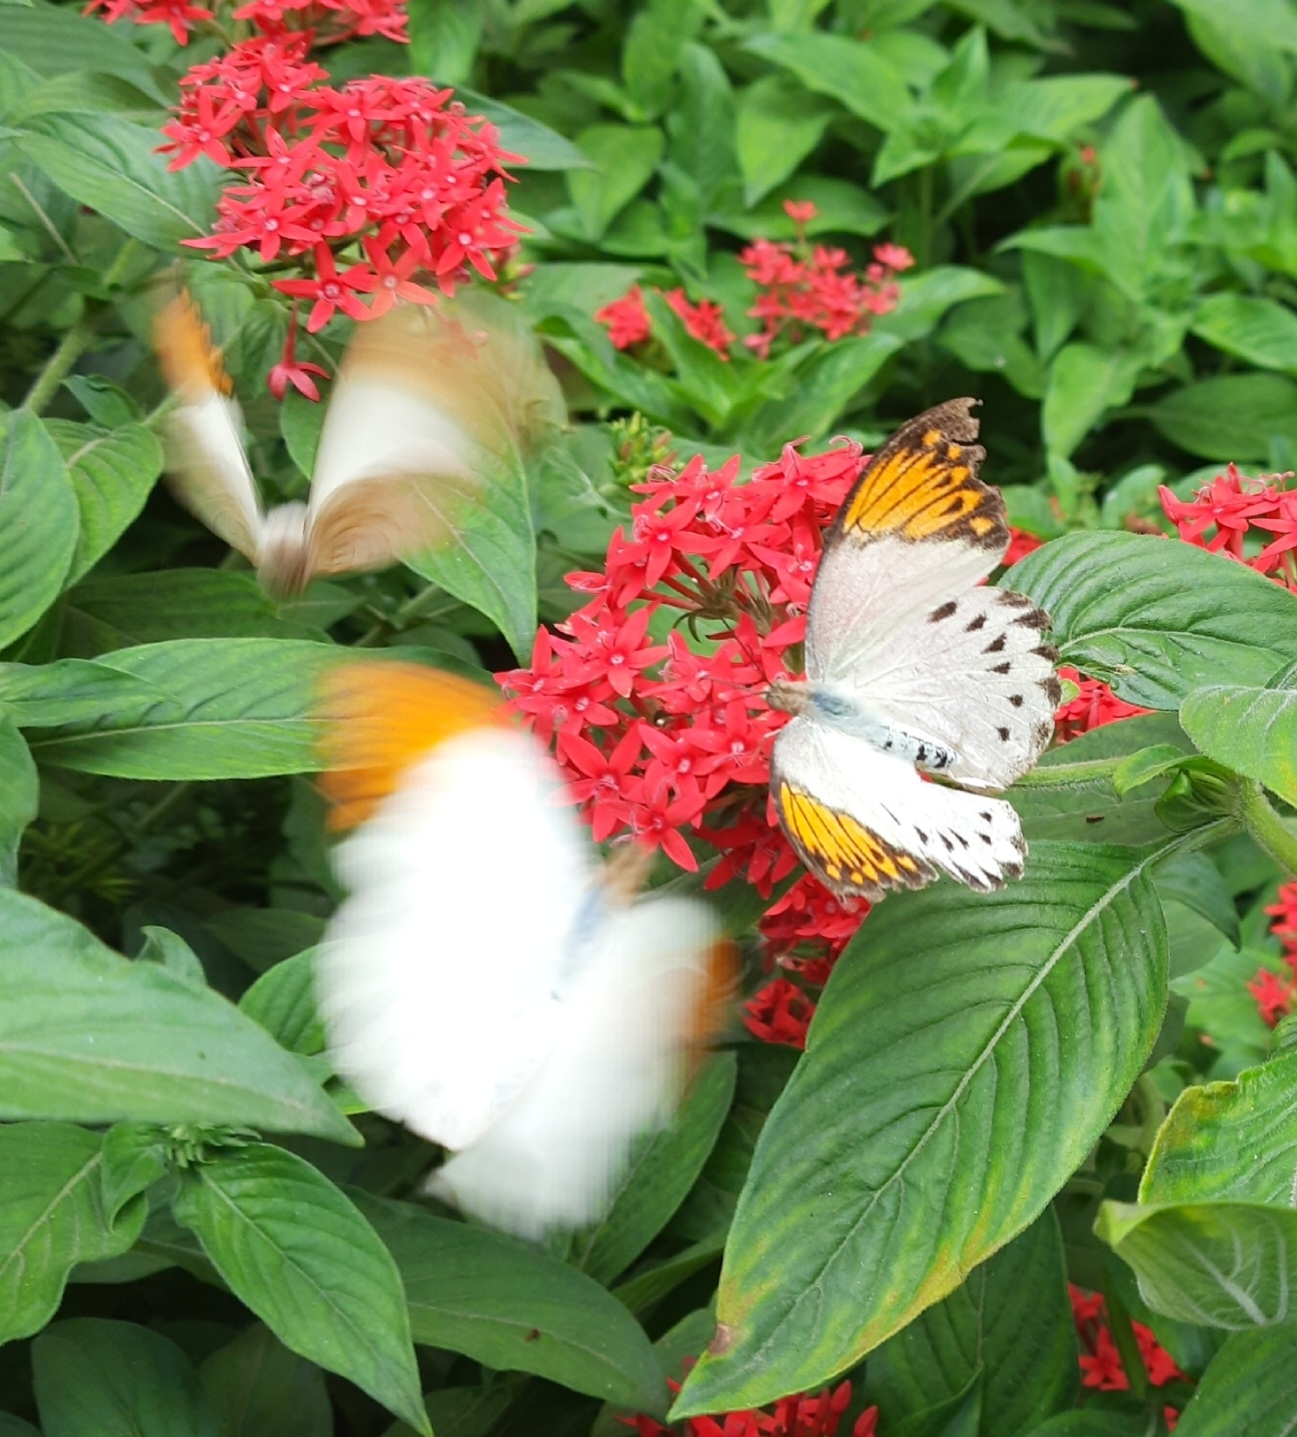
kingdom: Animalia
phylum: Arthropoda
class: Insecta
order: Lepidoptera
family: Pieridae
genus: Hebomoia
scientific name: Hebomoia glaucippe
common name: Great orange tip
